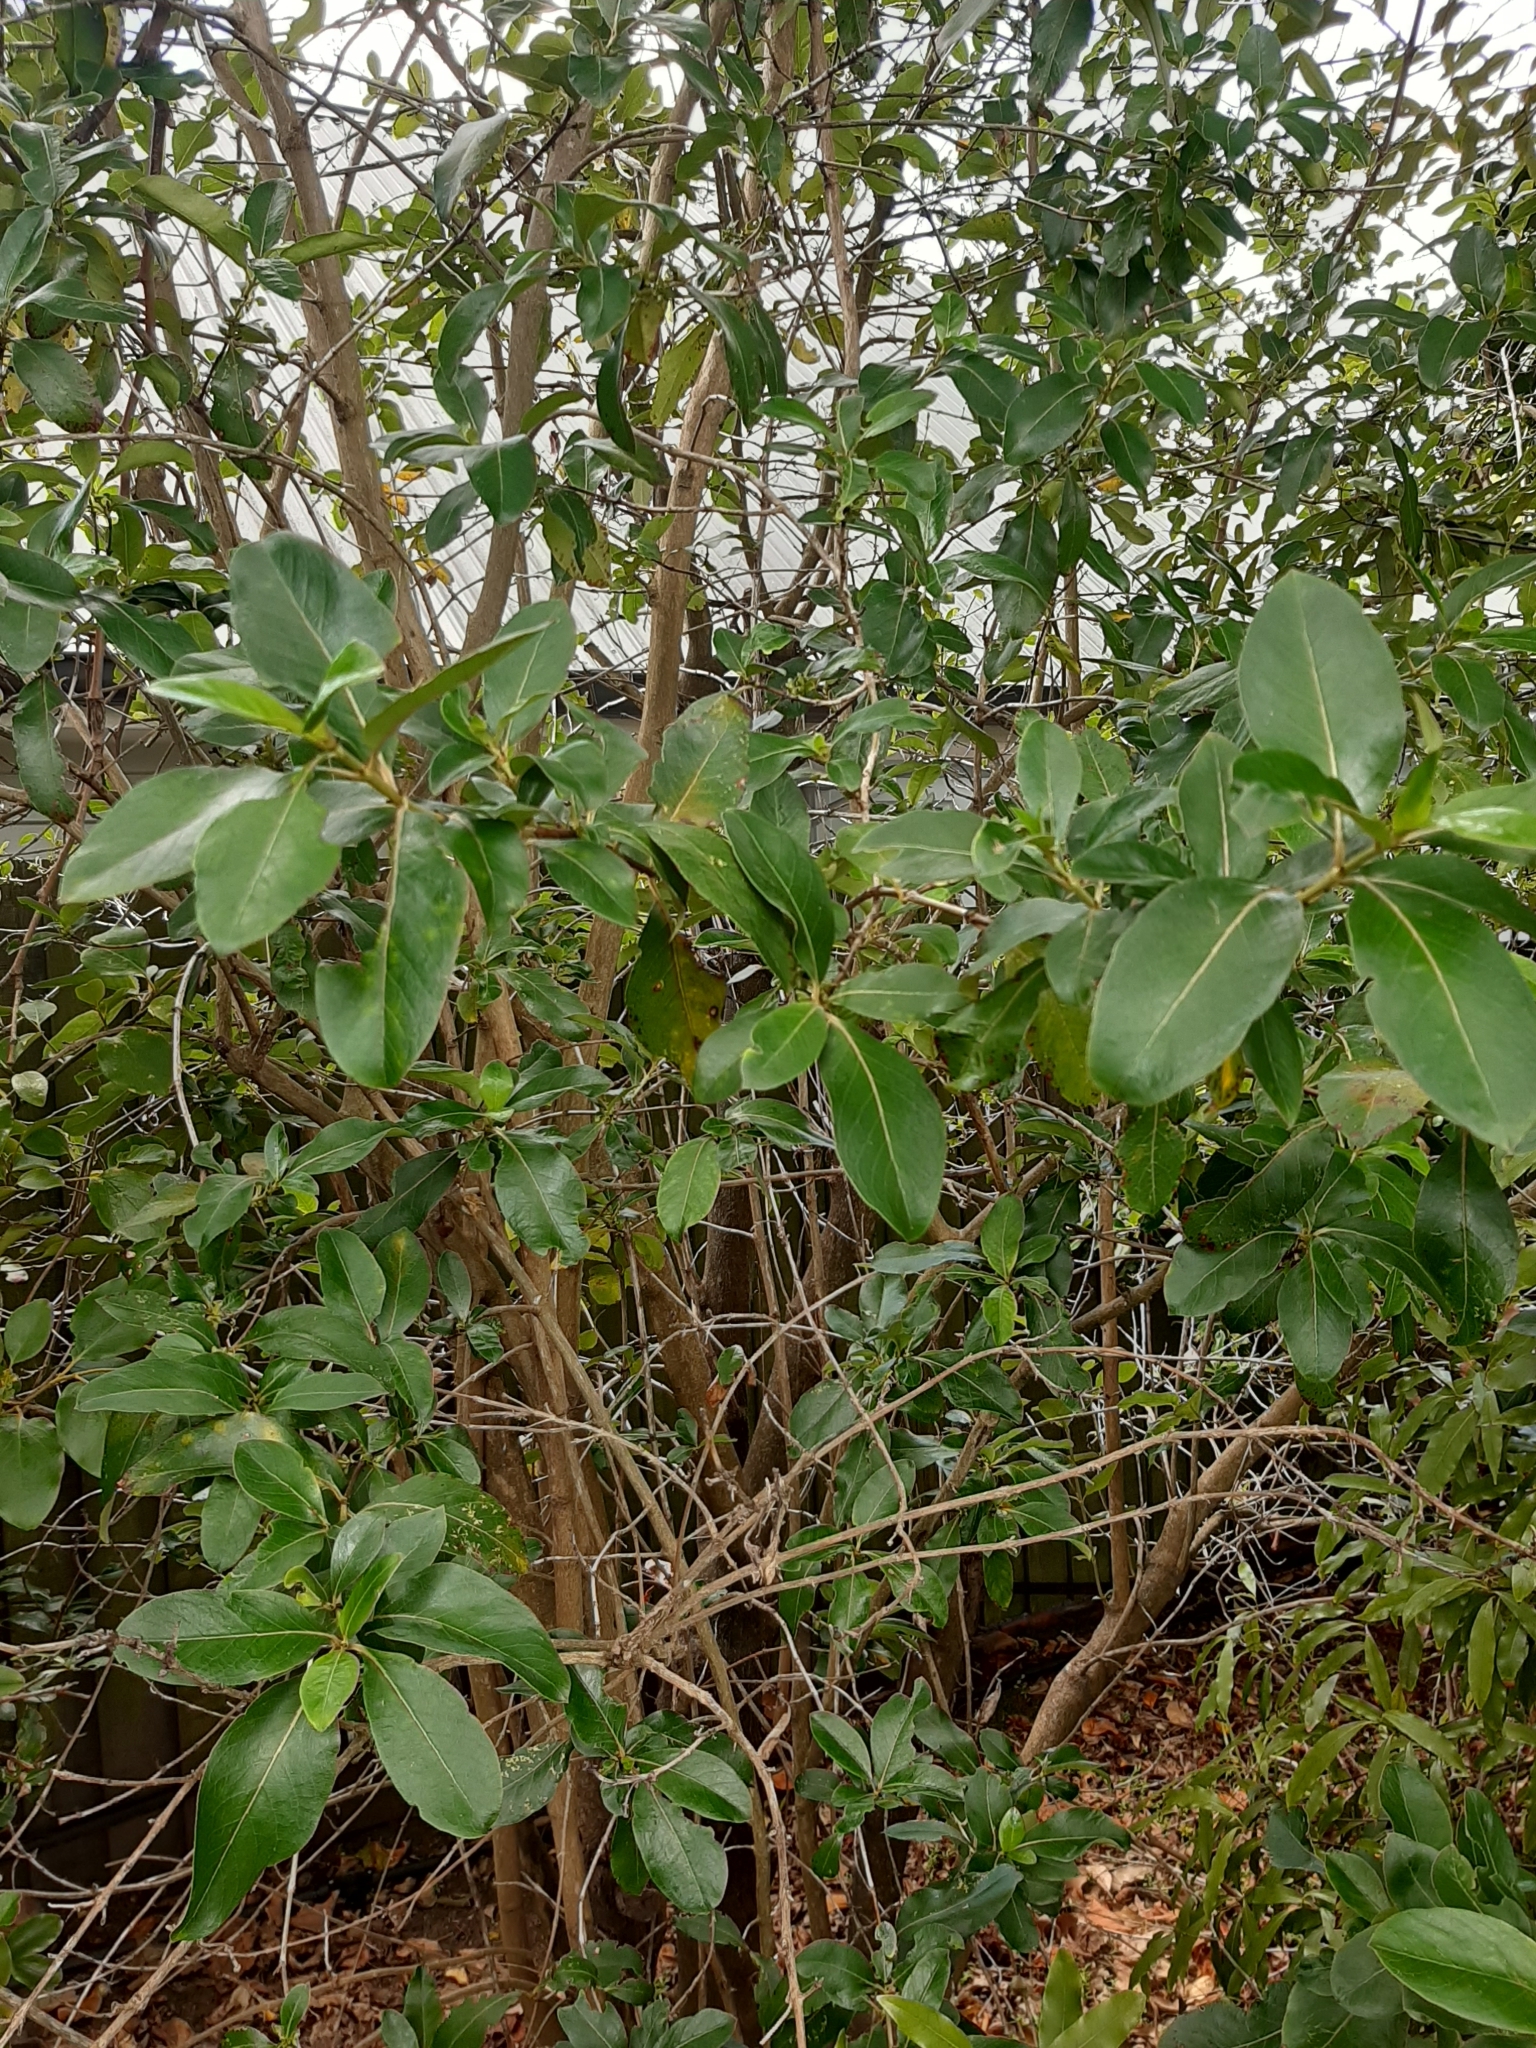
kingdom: Plantae
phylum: Tracheophyta
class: Magnoliopsida
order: Gentianales
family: Rubiaceae
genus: Coprosma
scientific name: Coprosma robusta
